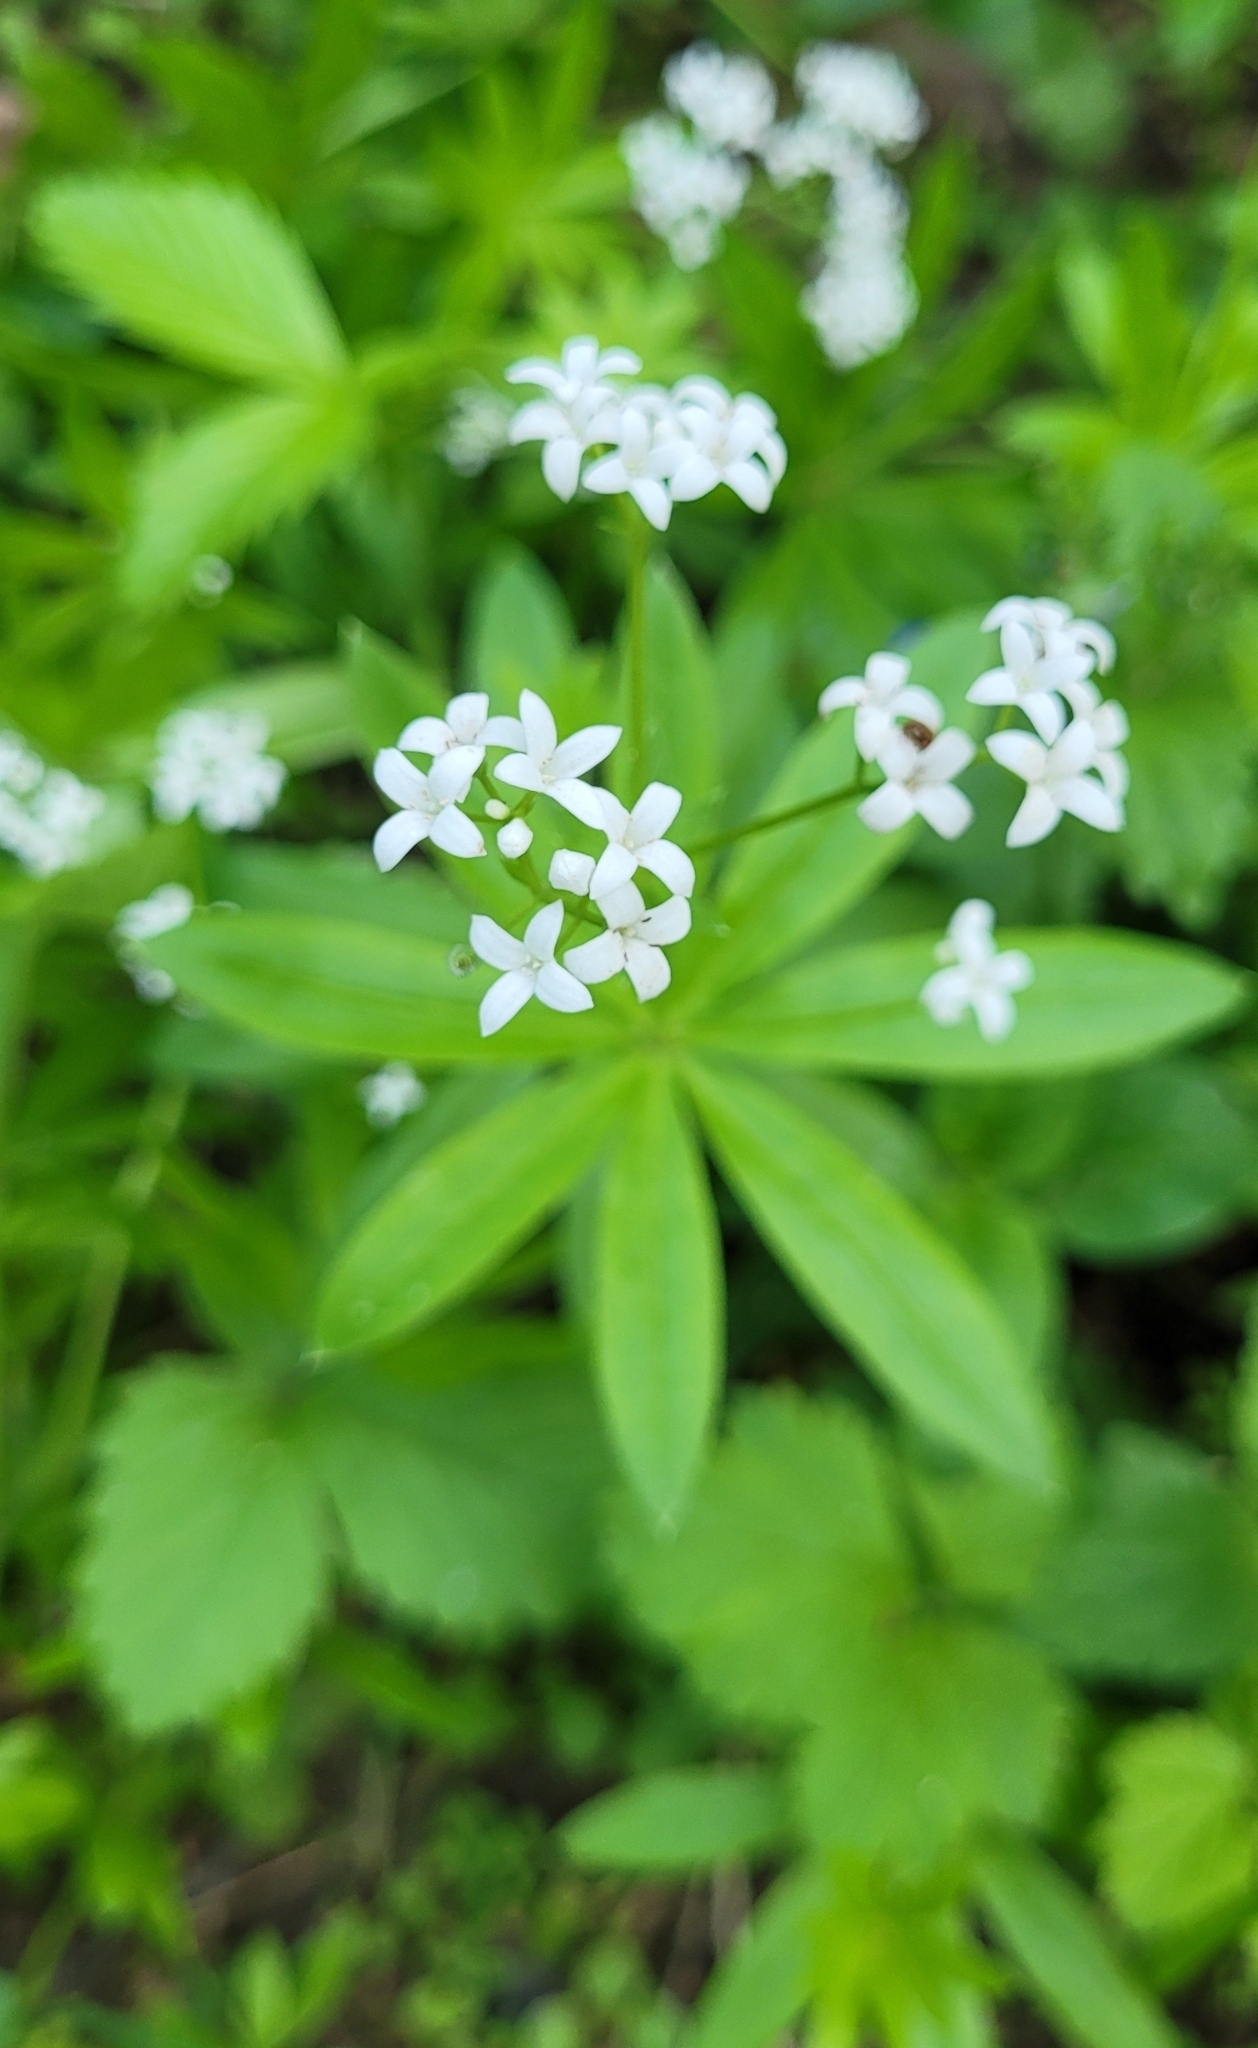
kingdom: Plantae
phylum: Tracheophyta
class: Magnoliopsida
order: Gentianales
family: Rubiaceae
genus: Galium
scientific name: Galium odoratum
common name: Sweet woodruff
